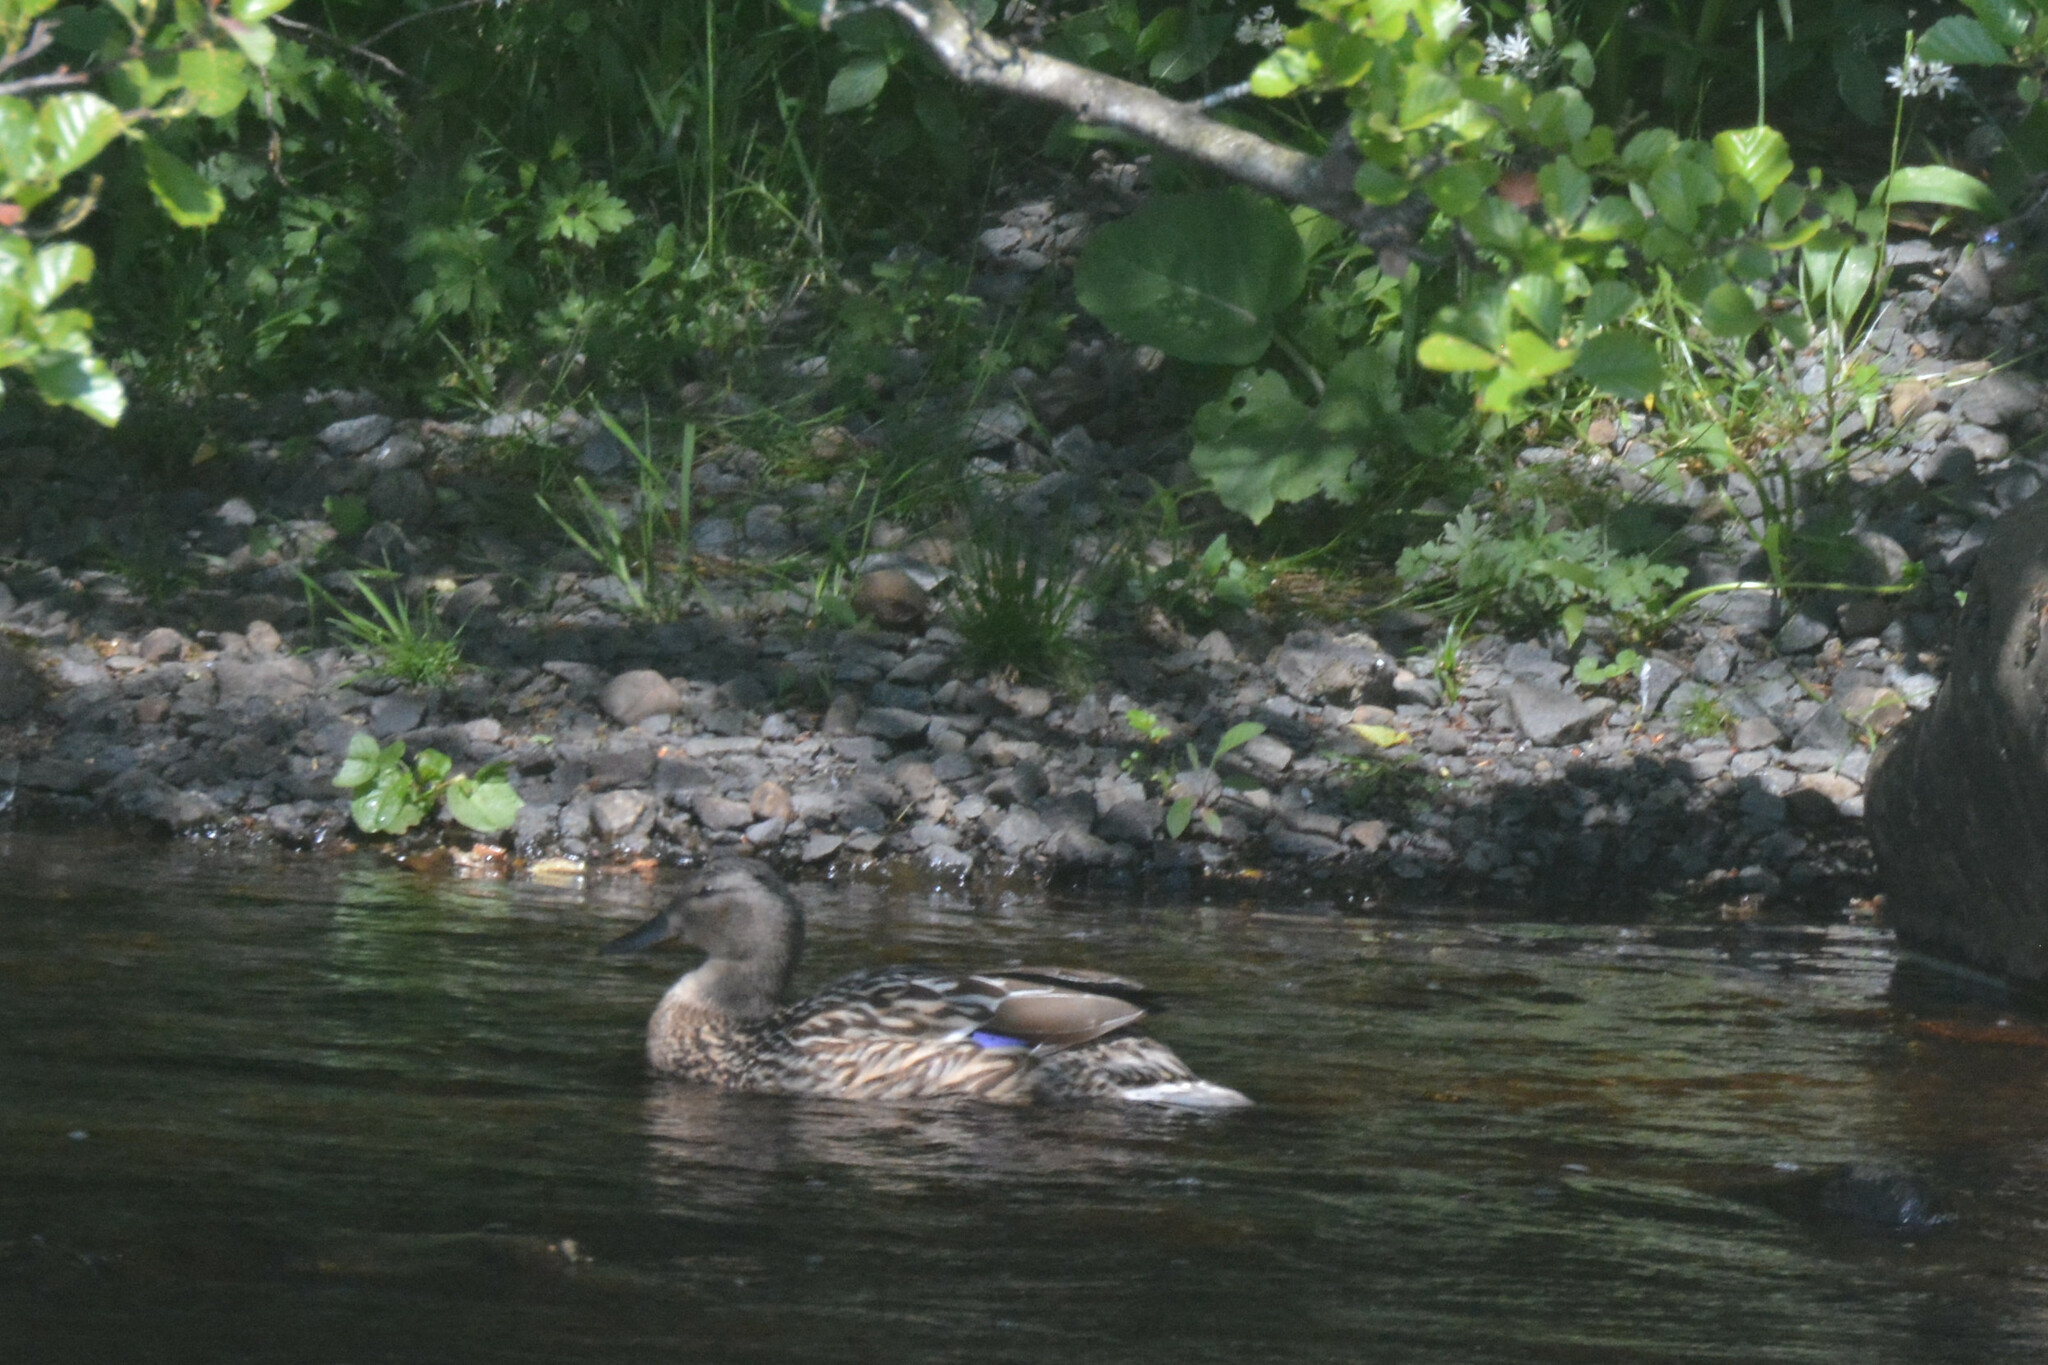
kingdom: Animalia
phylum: Chordata
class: Aves
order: Anseriformes
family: Anatidae
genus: Anas
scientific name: Anas platyrhynchos
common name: Mallard
